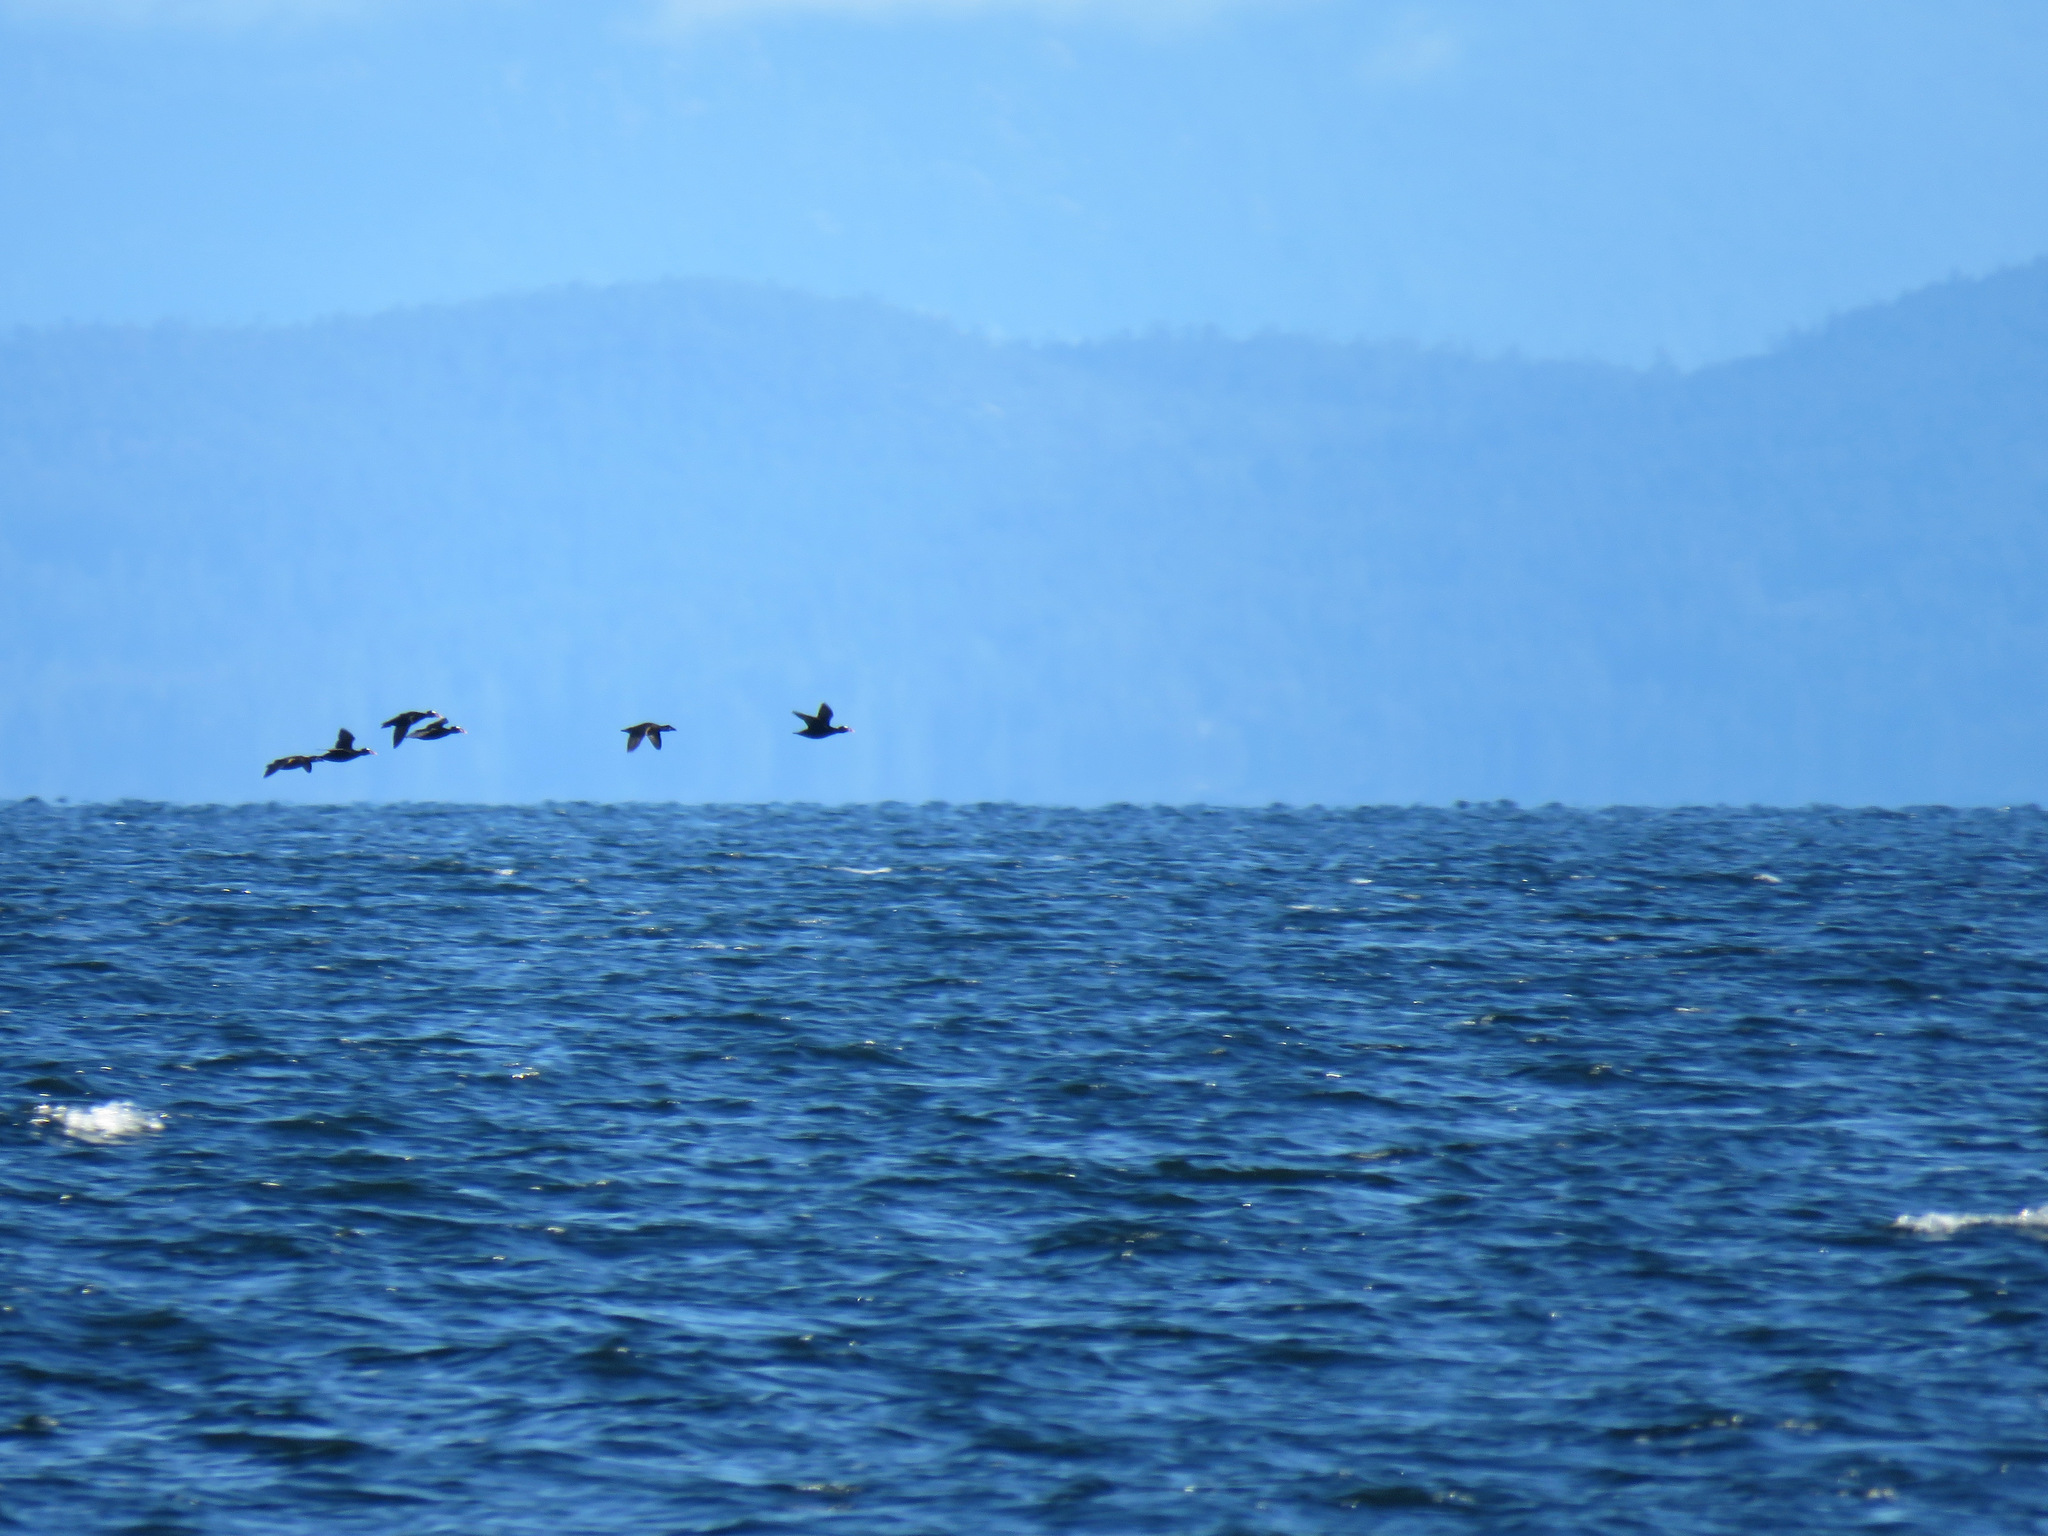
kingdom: Animalia
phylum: Chordata
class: Aves
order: Anseriformes
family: Anatidae
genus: Melanitta
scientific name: Melanitta perspicillata
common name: Surf scoter
